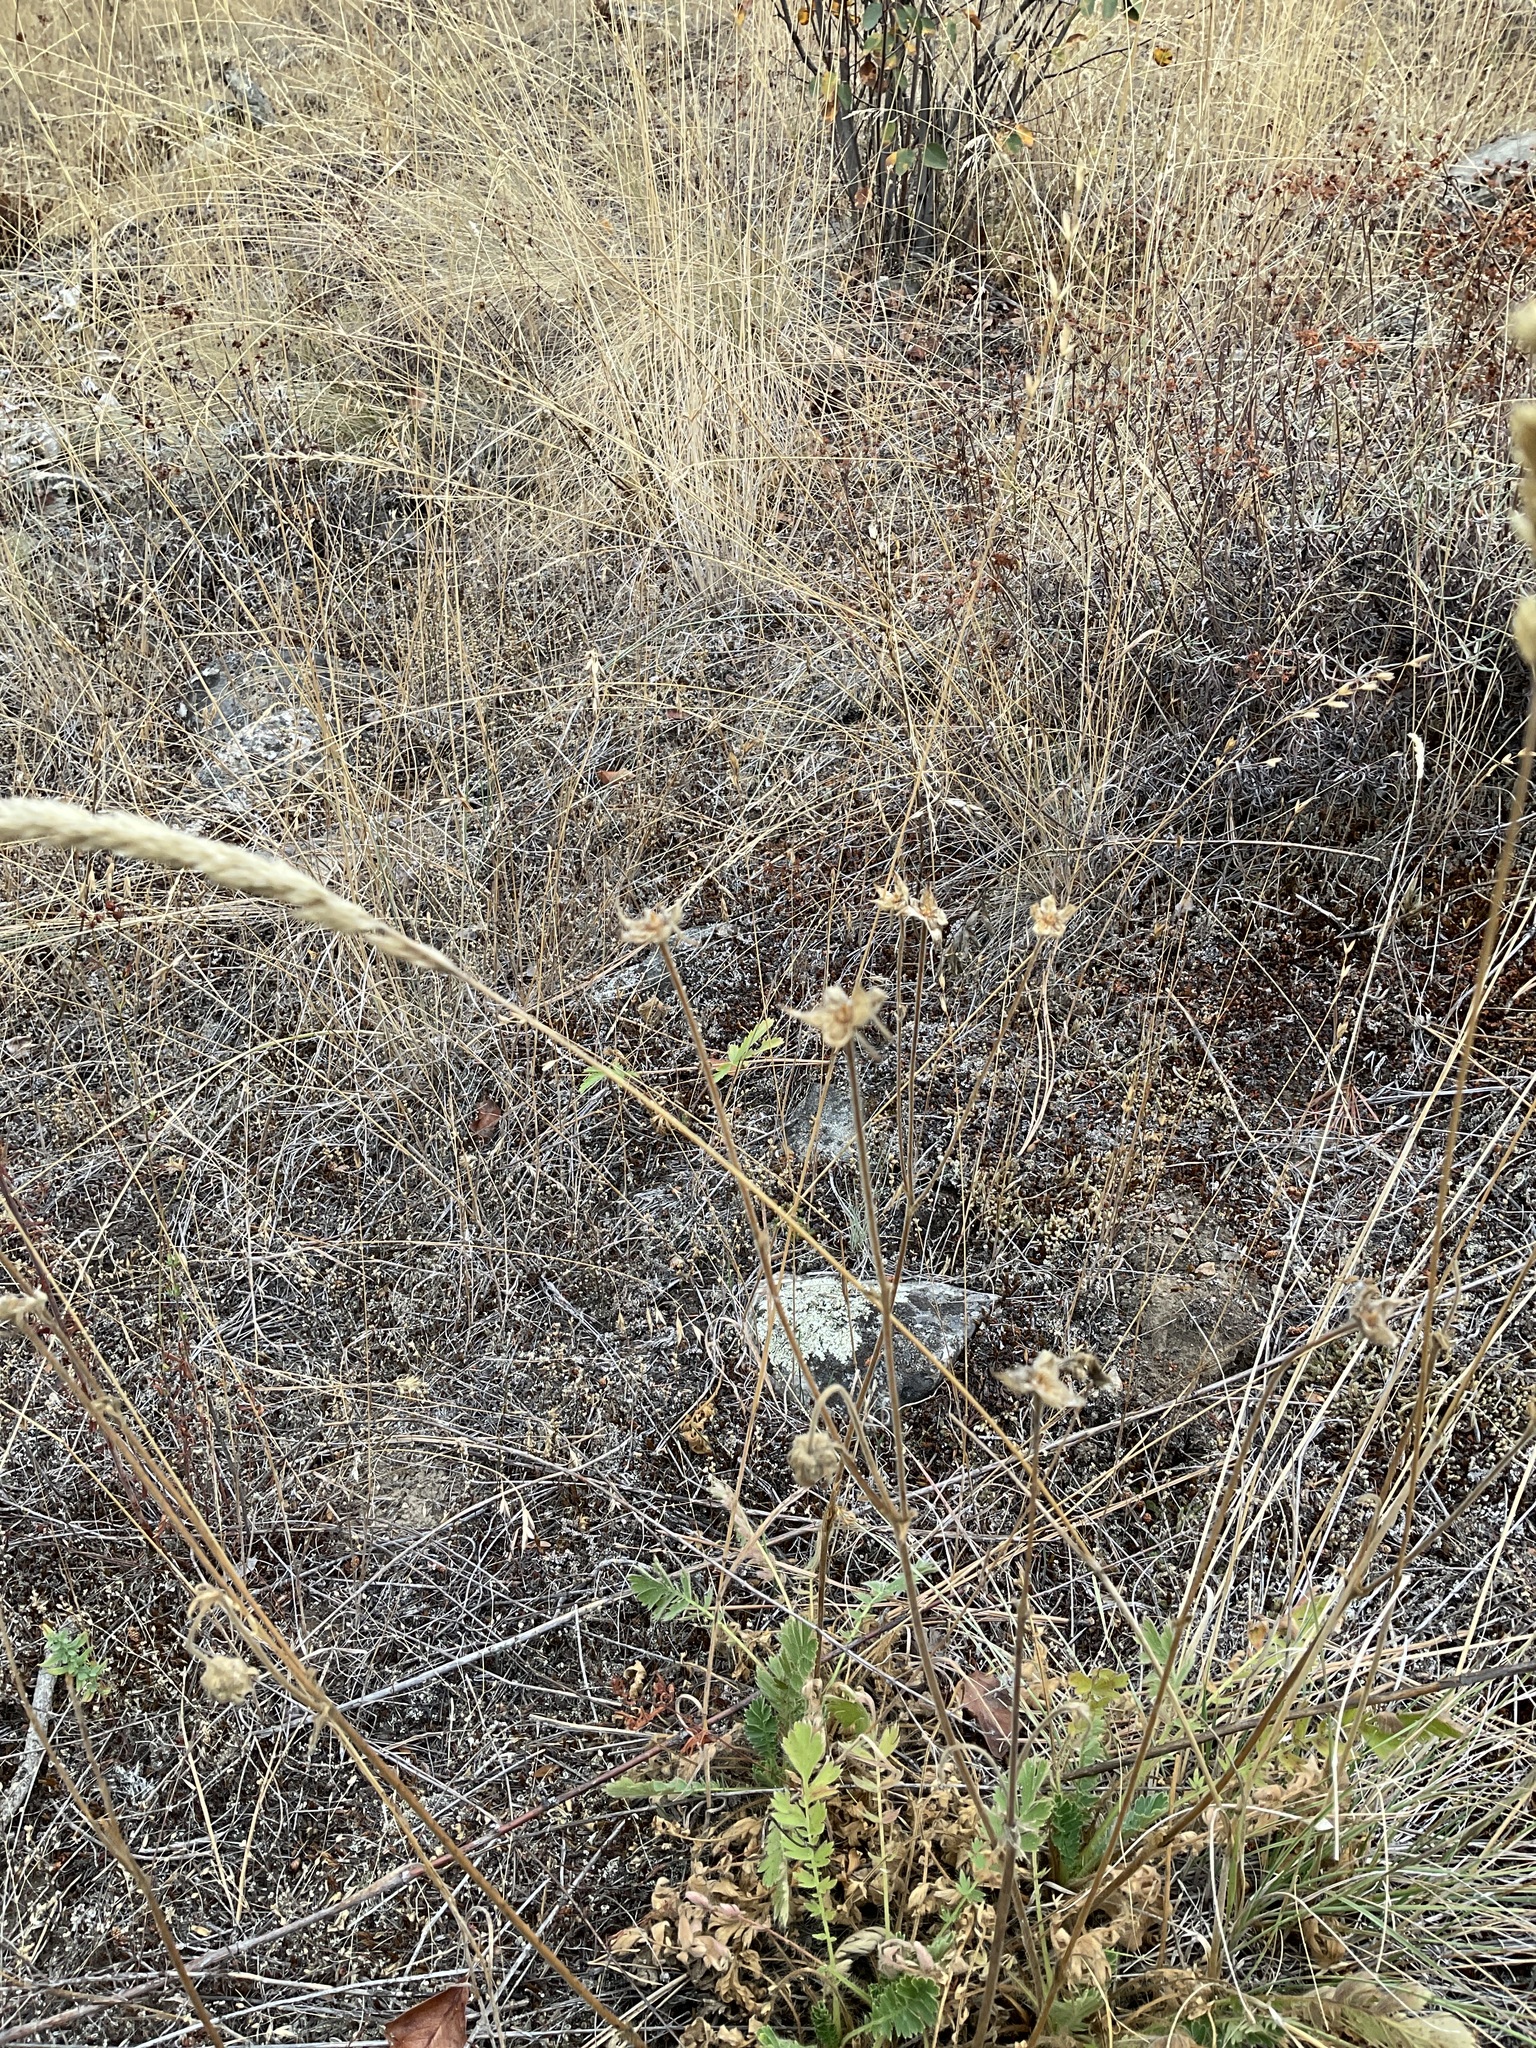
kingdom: Plantae
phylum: Tracheophyta
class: Magnoliopsida
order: Rosales
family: Rosaceae
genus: Geum
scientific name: Geum triflorum
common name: Old man's whiskers
